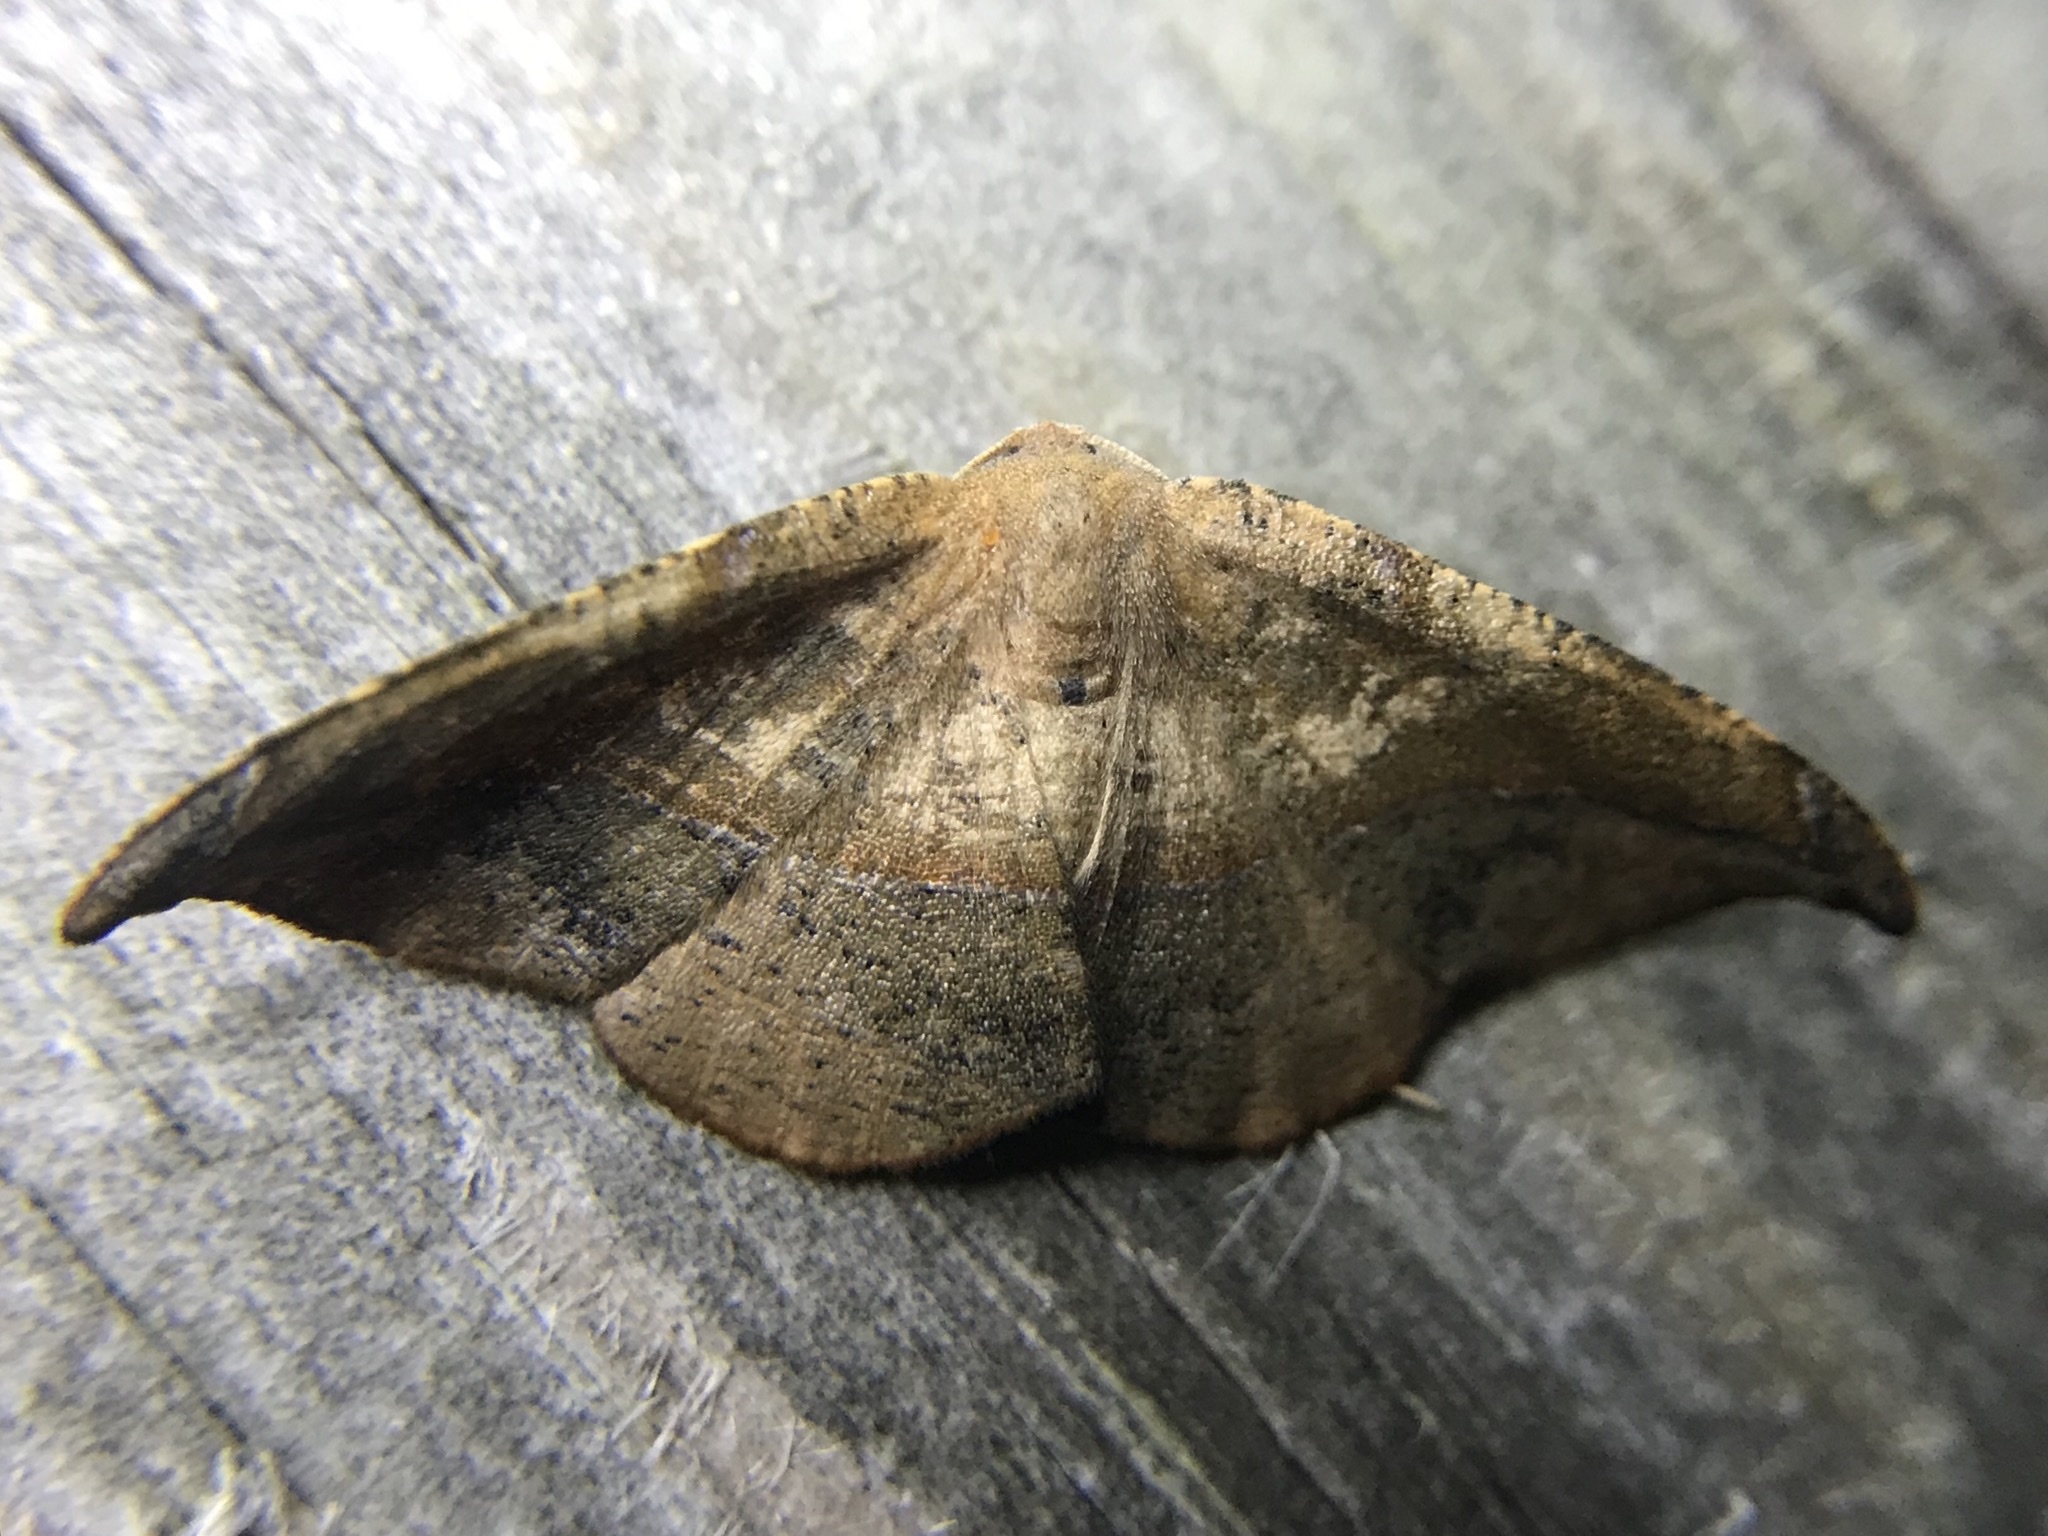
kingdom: Animalia
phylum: Arthropoda
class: Insecta
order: Lepidoptera
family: Geometridae
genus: Patalene
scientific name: Patalene olyzonaria
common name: Juniper geometer moth
